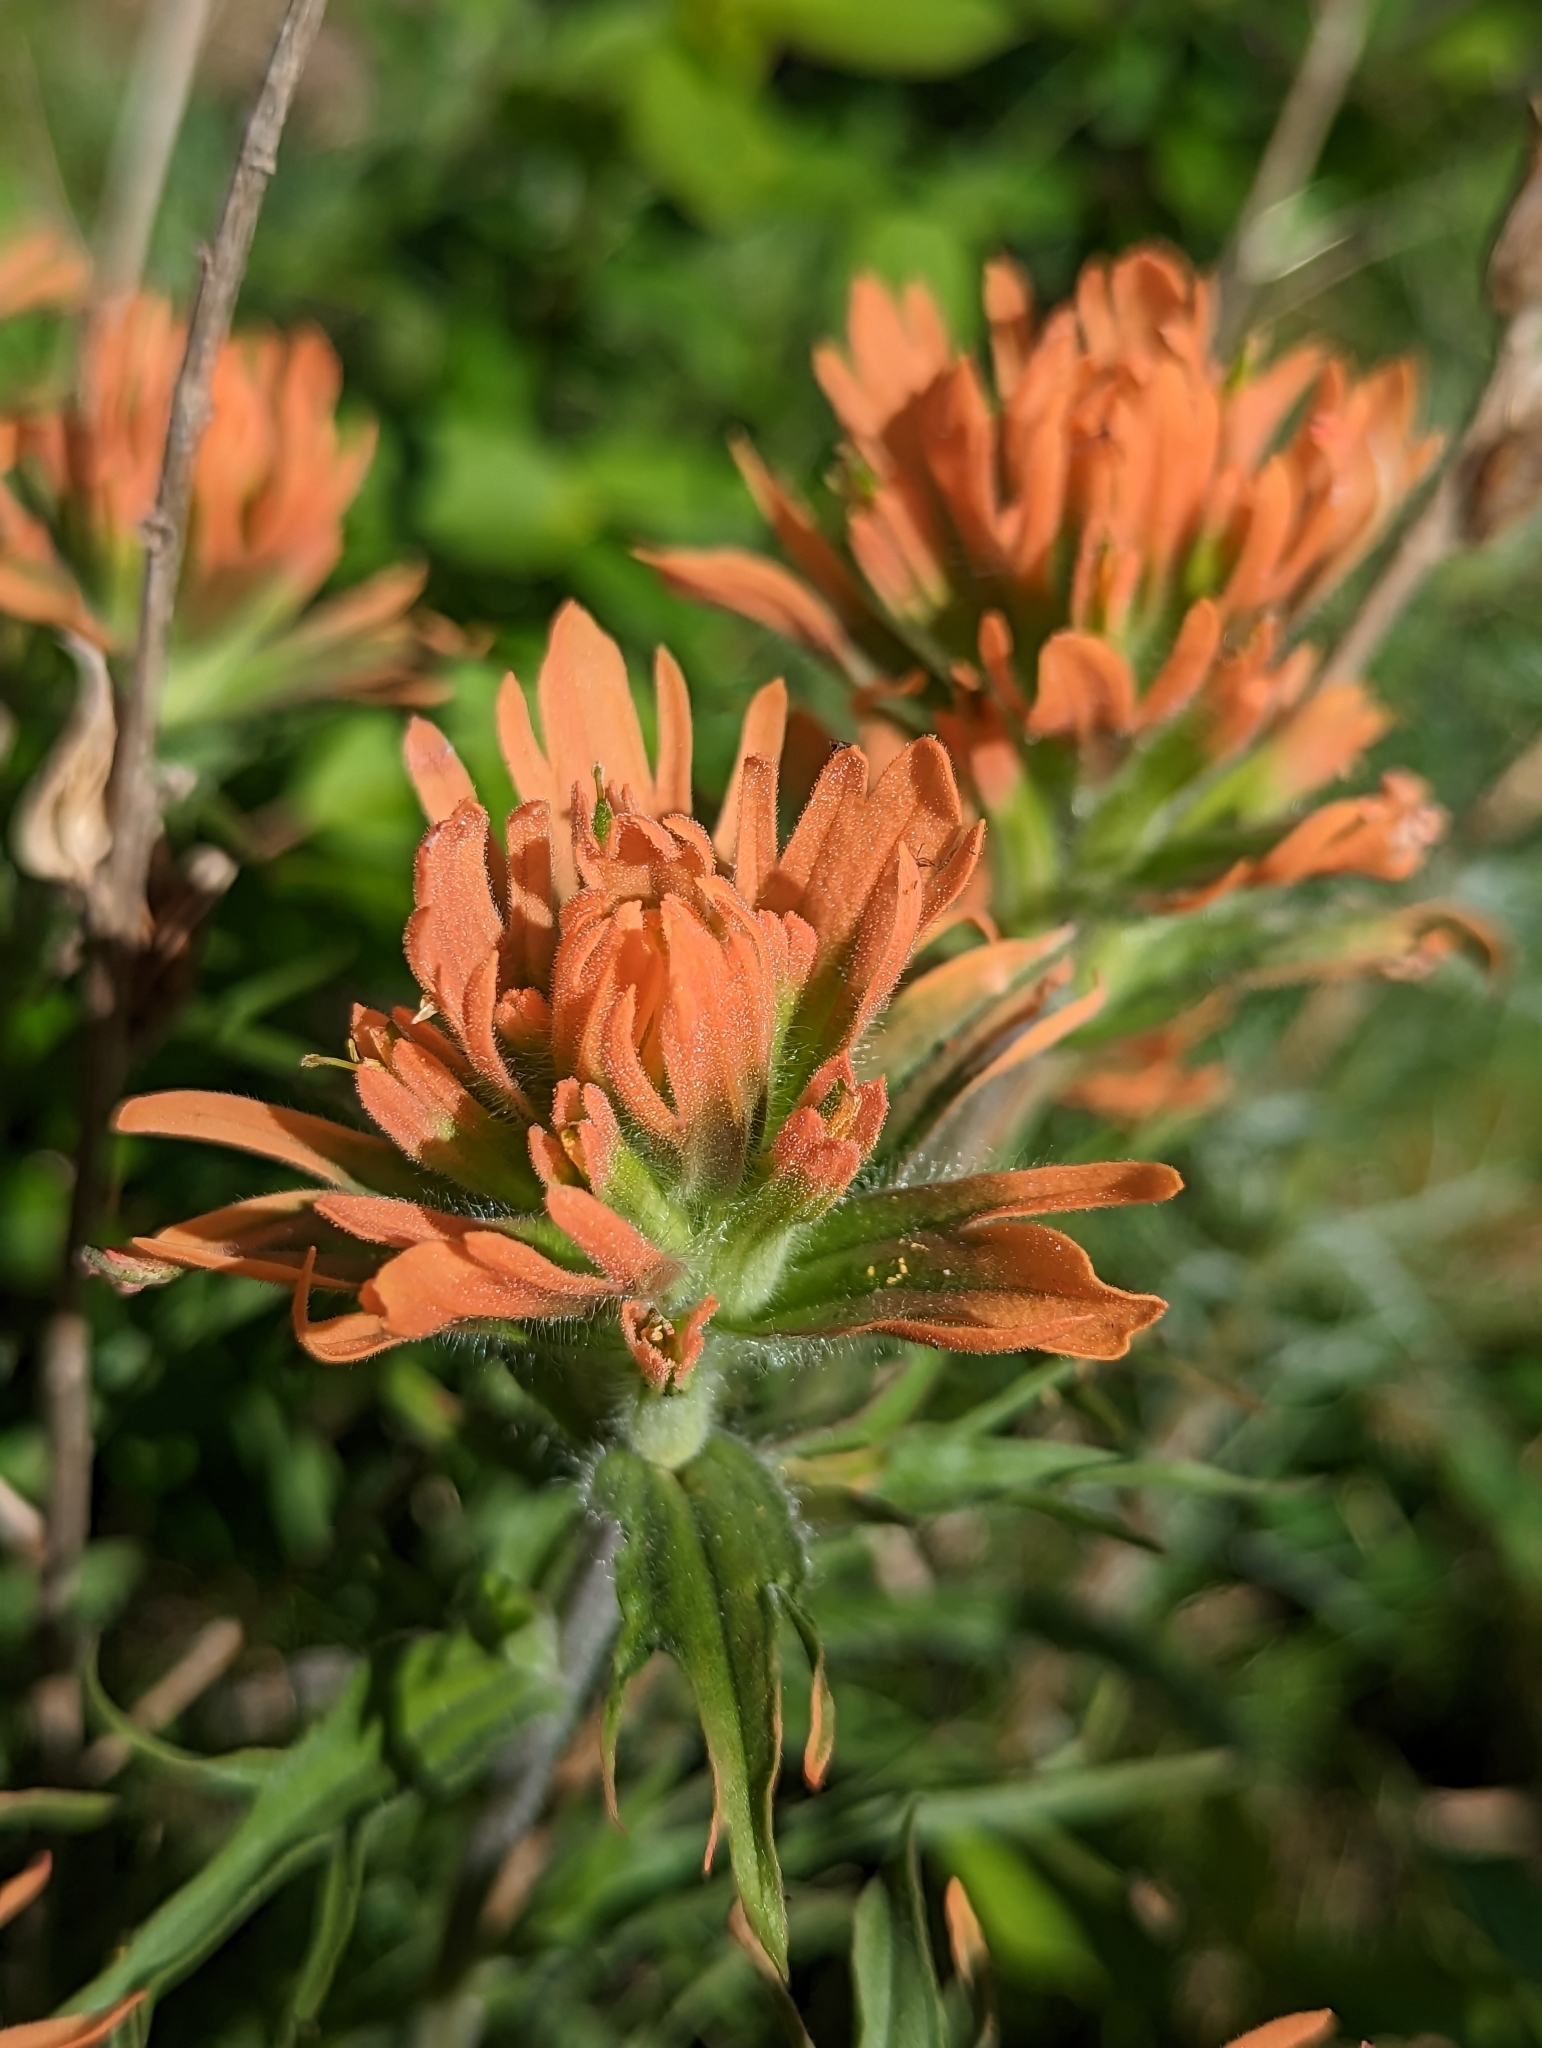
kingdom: Plantae
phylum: Tracheophyta
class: Magnoliopsida
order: Lamiales
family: Orobanchaceae
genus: Castilleja
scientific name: Castilleja hispida
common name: Bristly paintbrush
